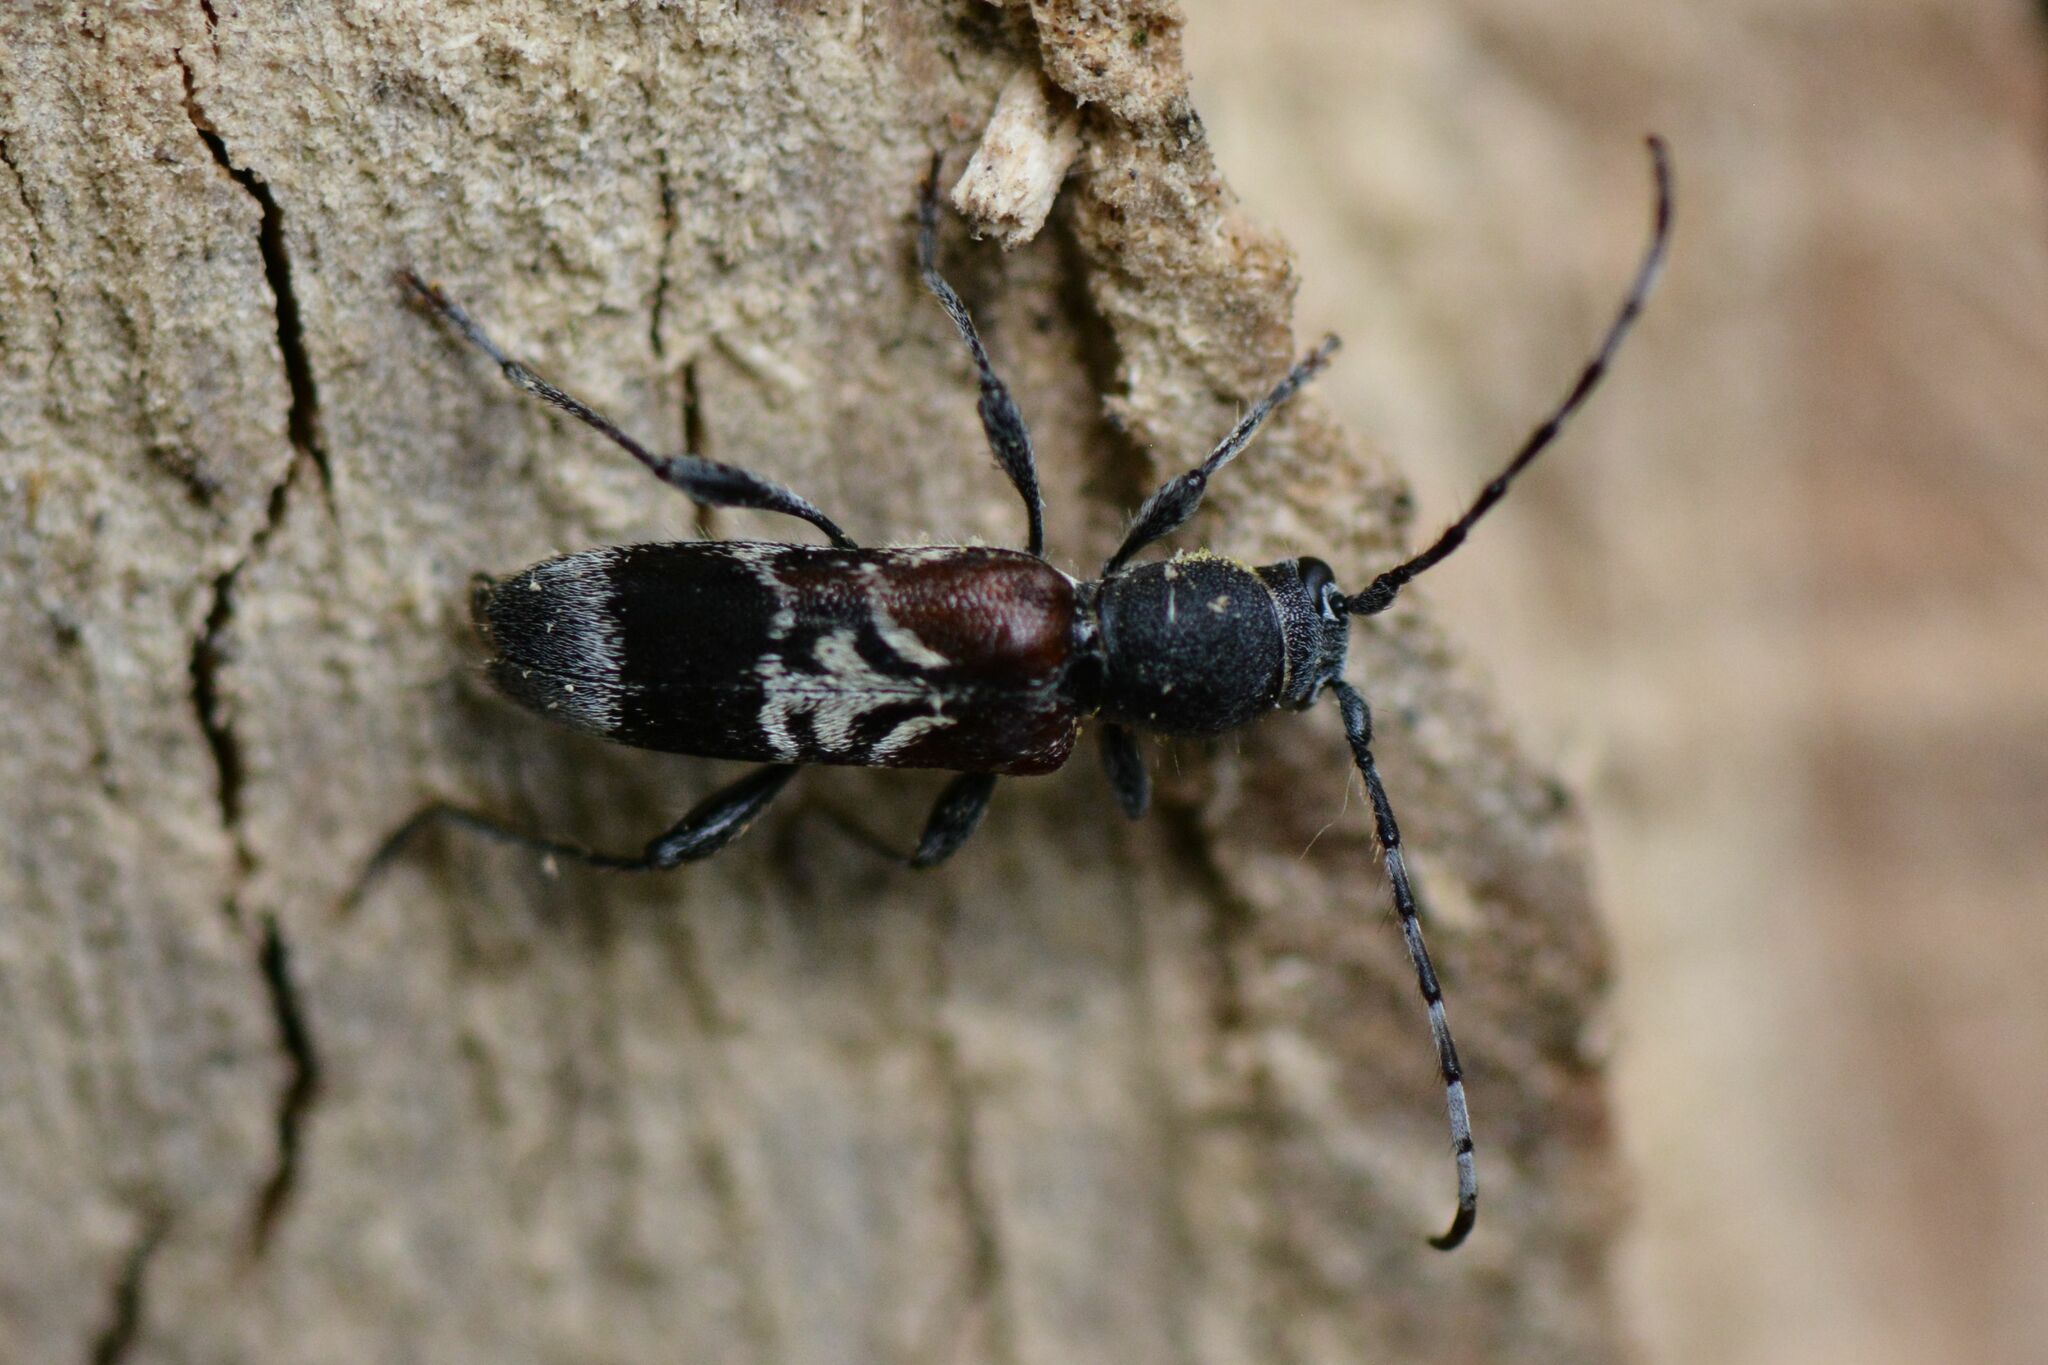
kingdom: Animalia
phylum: Arthropoda
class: Insecta
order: Coleoptera
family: Cerambycidae
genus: Anaglyptus
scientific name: Anaglyptus mysticus
